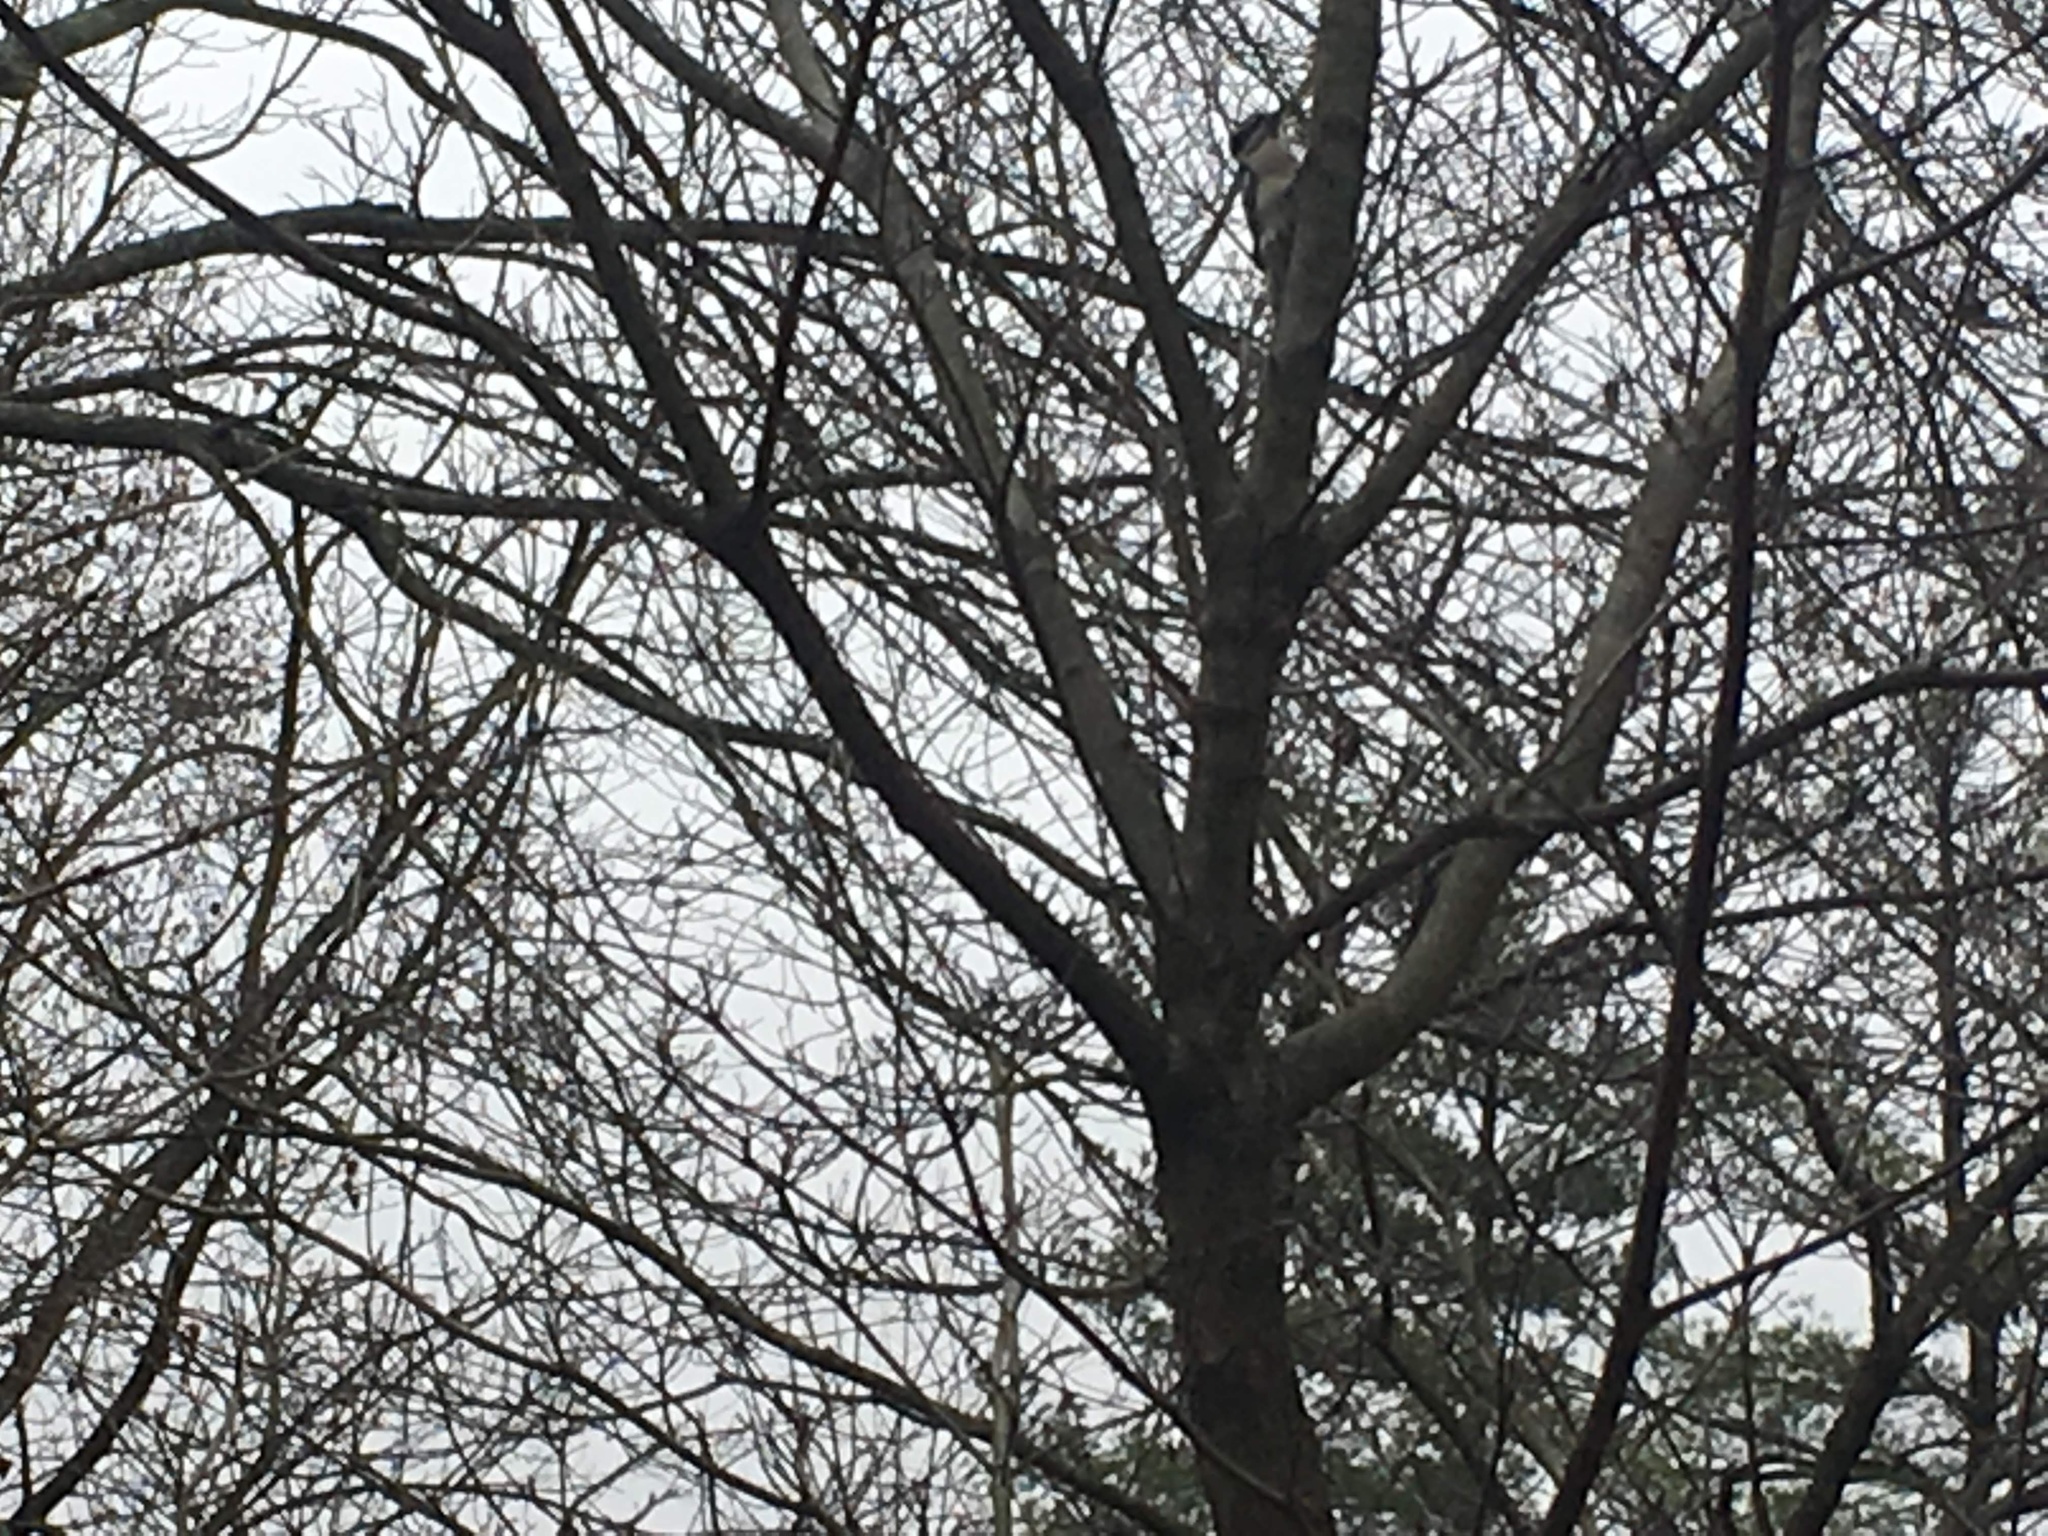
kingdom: Animalia
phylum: Chordata
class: Aves
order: Piciformes
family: Picidae
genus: Dryobates
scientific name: Dryobates pubescens
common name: Downy woodpecker
